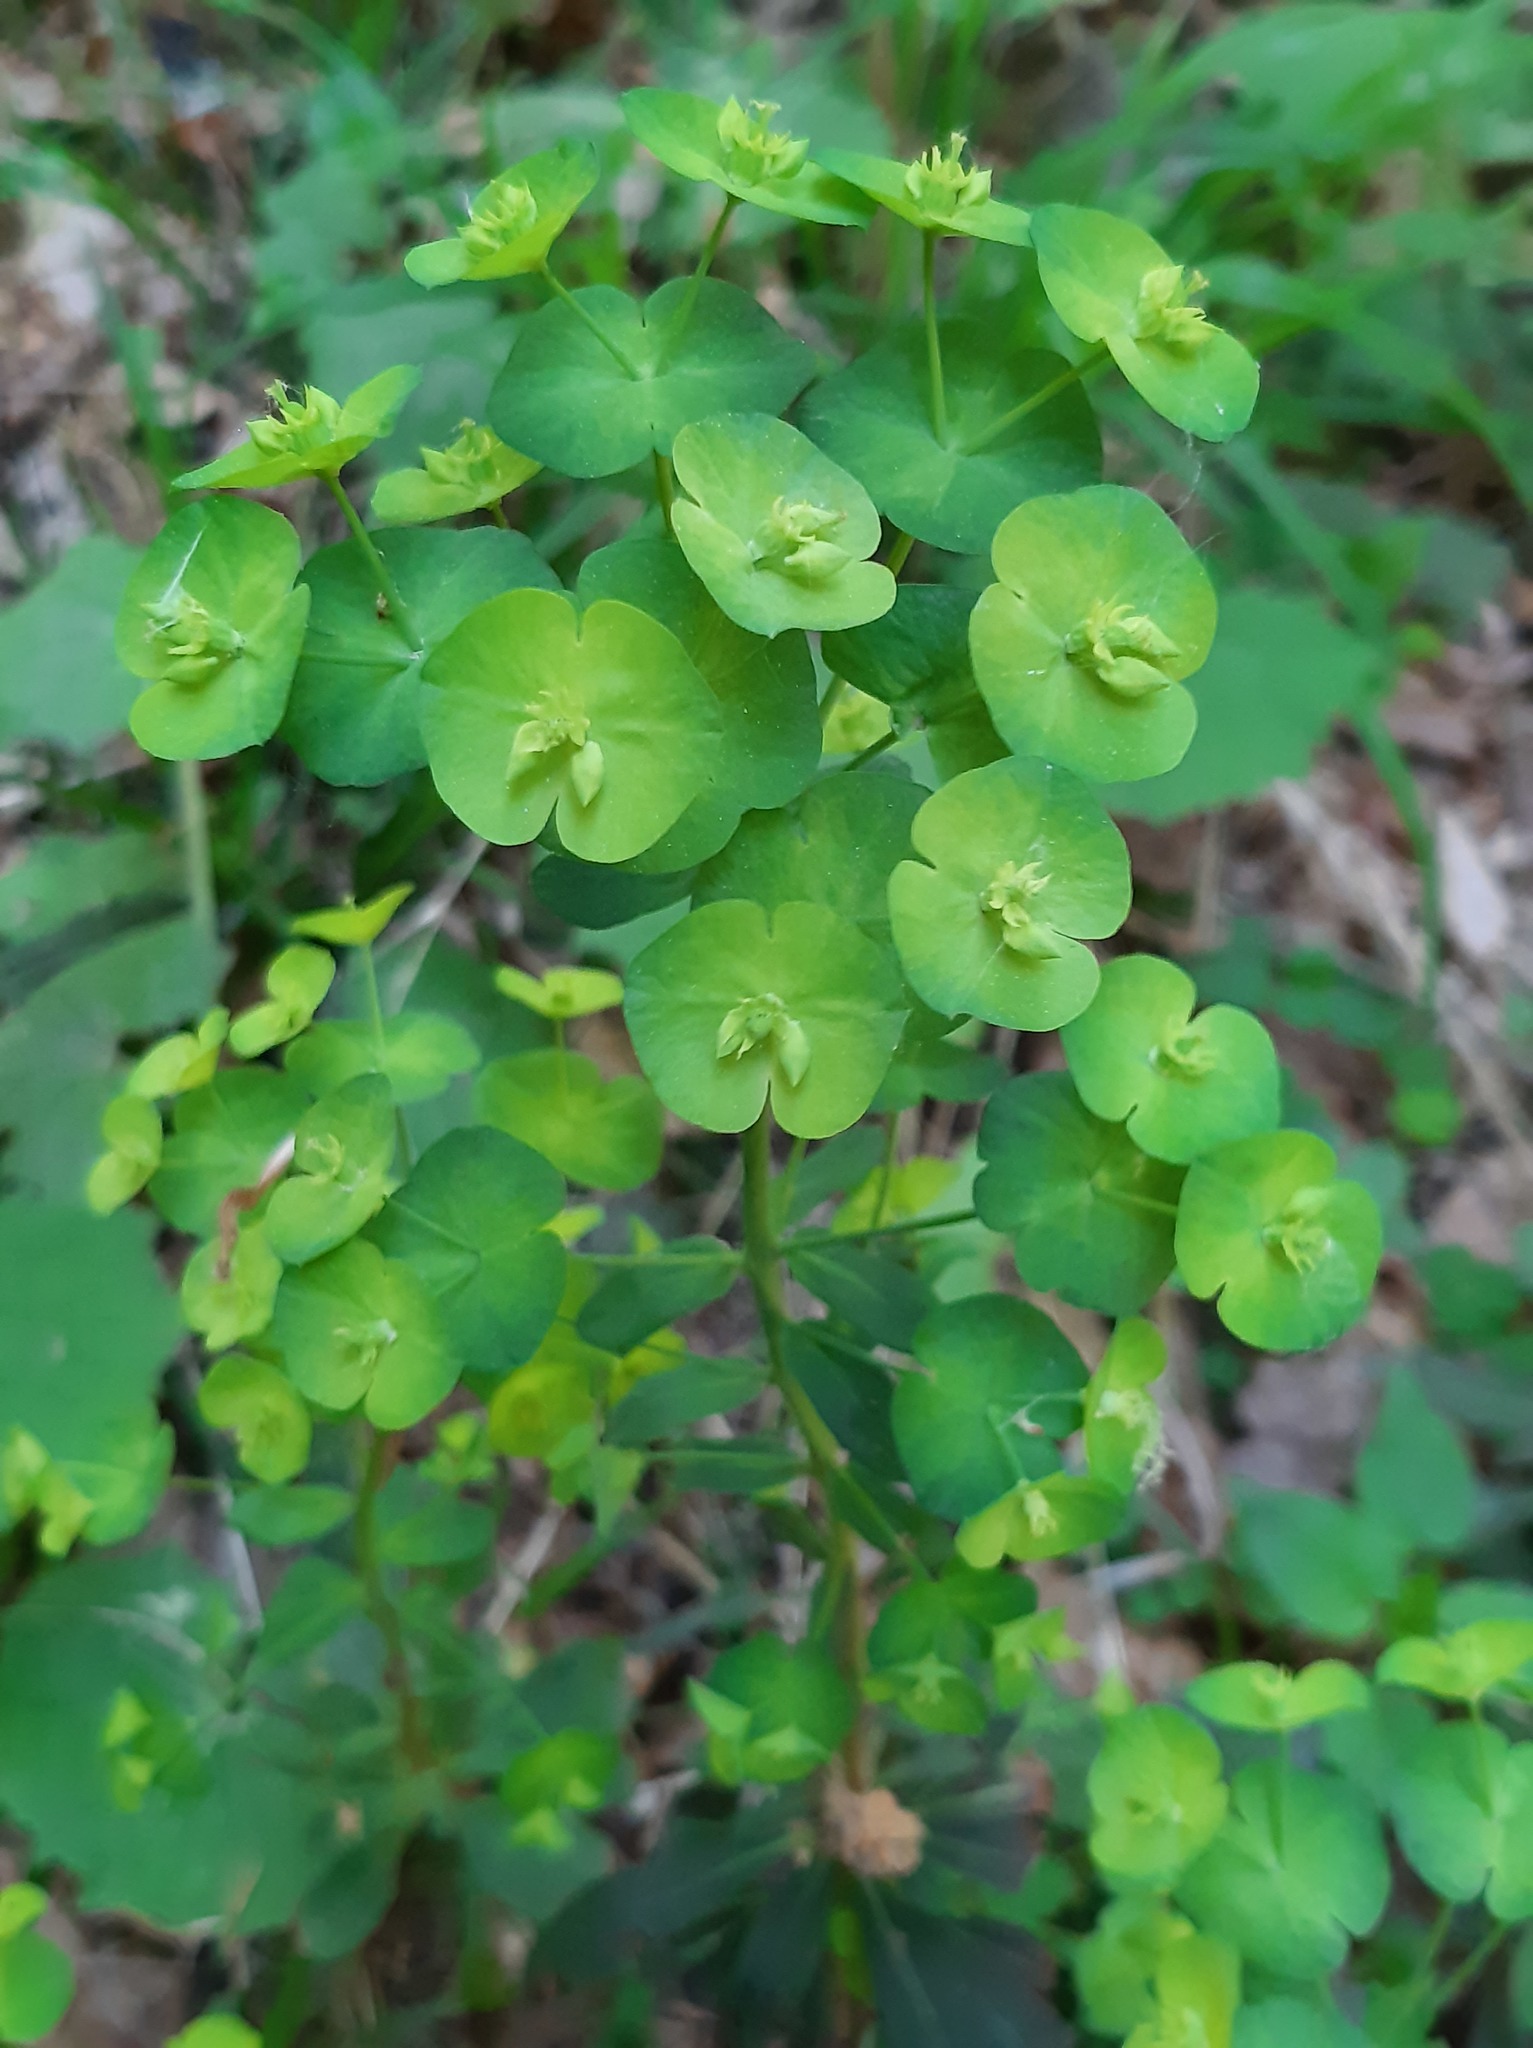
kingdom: Plantae
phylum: Tracheophyta
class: Magnoliopsida
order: Malpighiales
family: Euphorbiaceae
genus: Euphorbia
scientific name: Euphorbia amygdaloides
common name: Wood spurge
